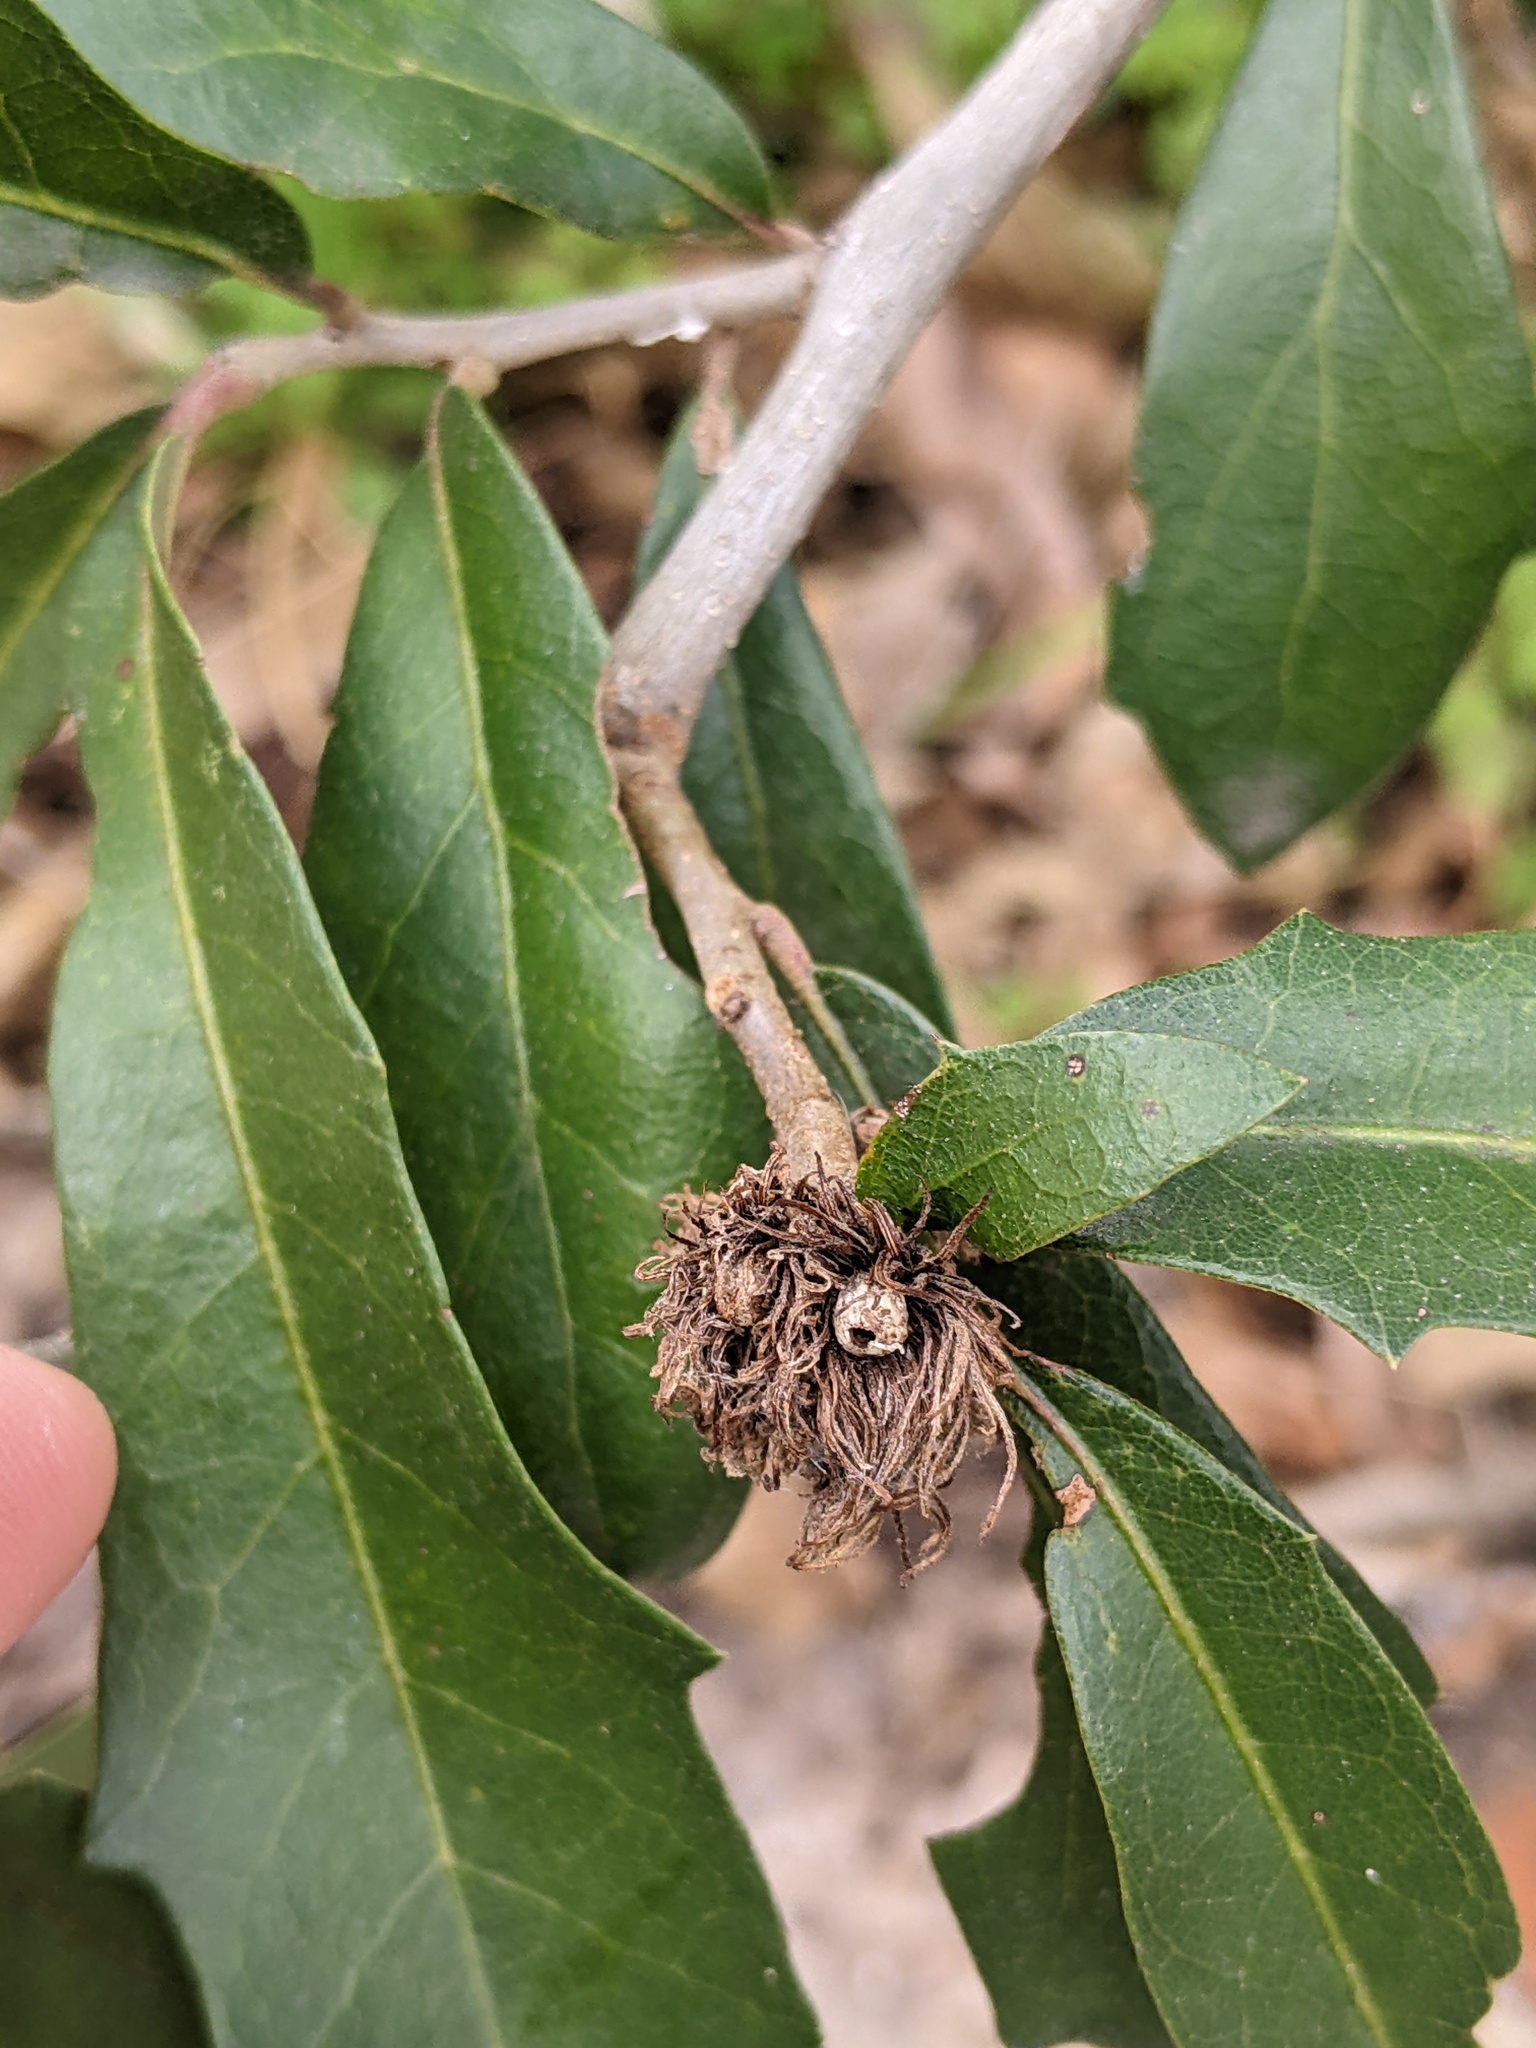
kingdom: Animalia
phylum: Arthropoda
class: Insecta
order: Hymenoptera
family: Cynipidae
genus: Andricus
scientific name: Andricus quercusfoliatus
